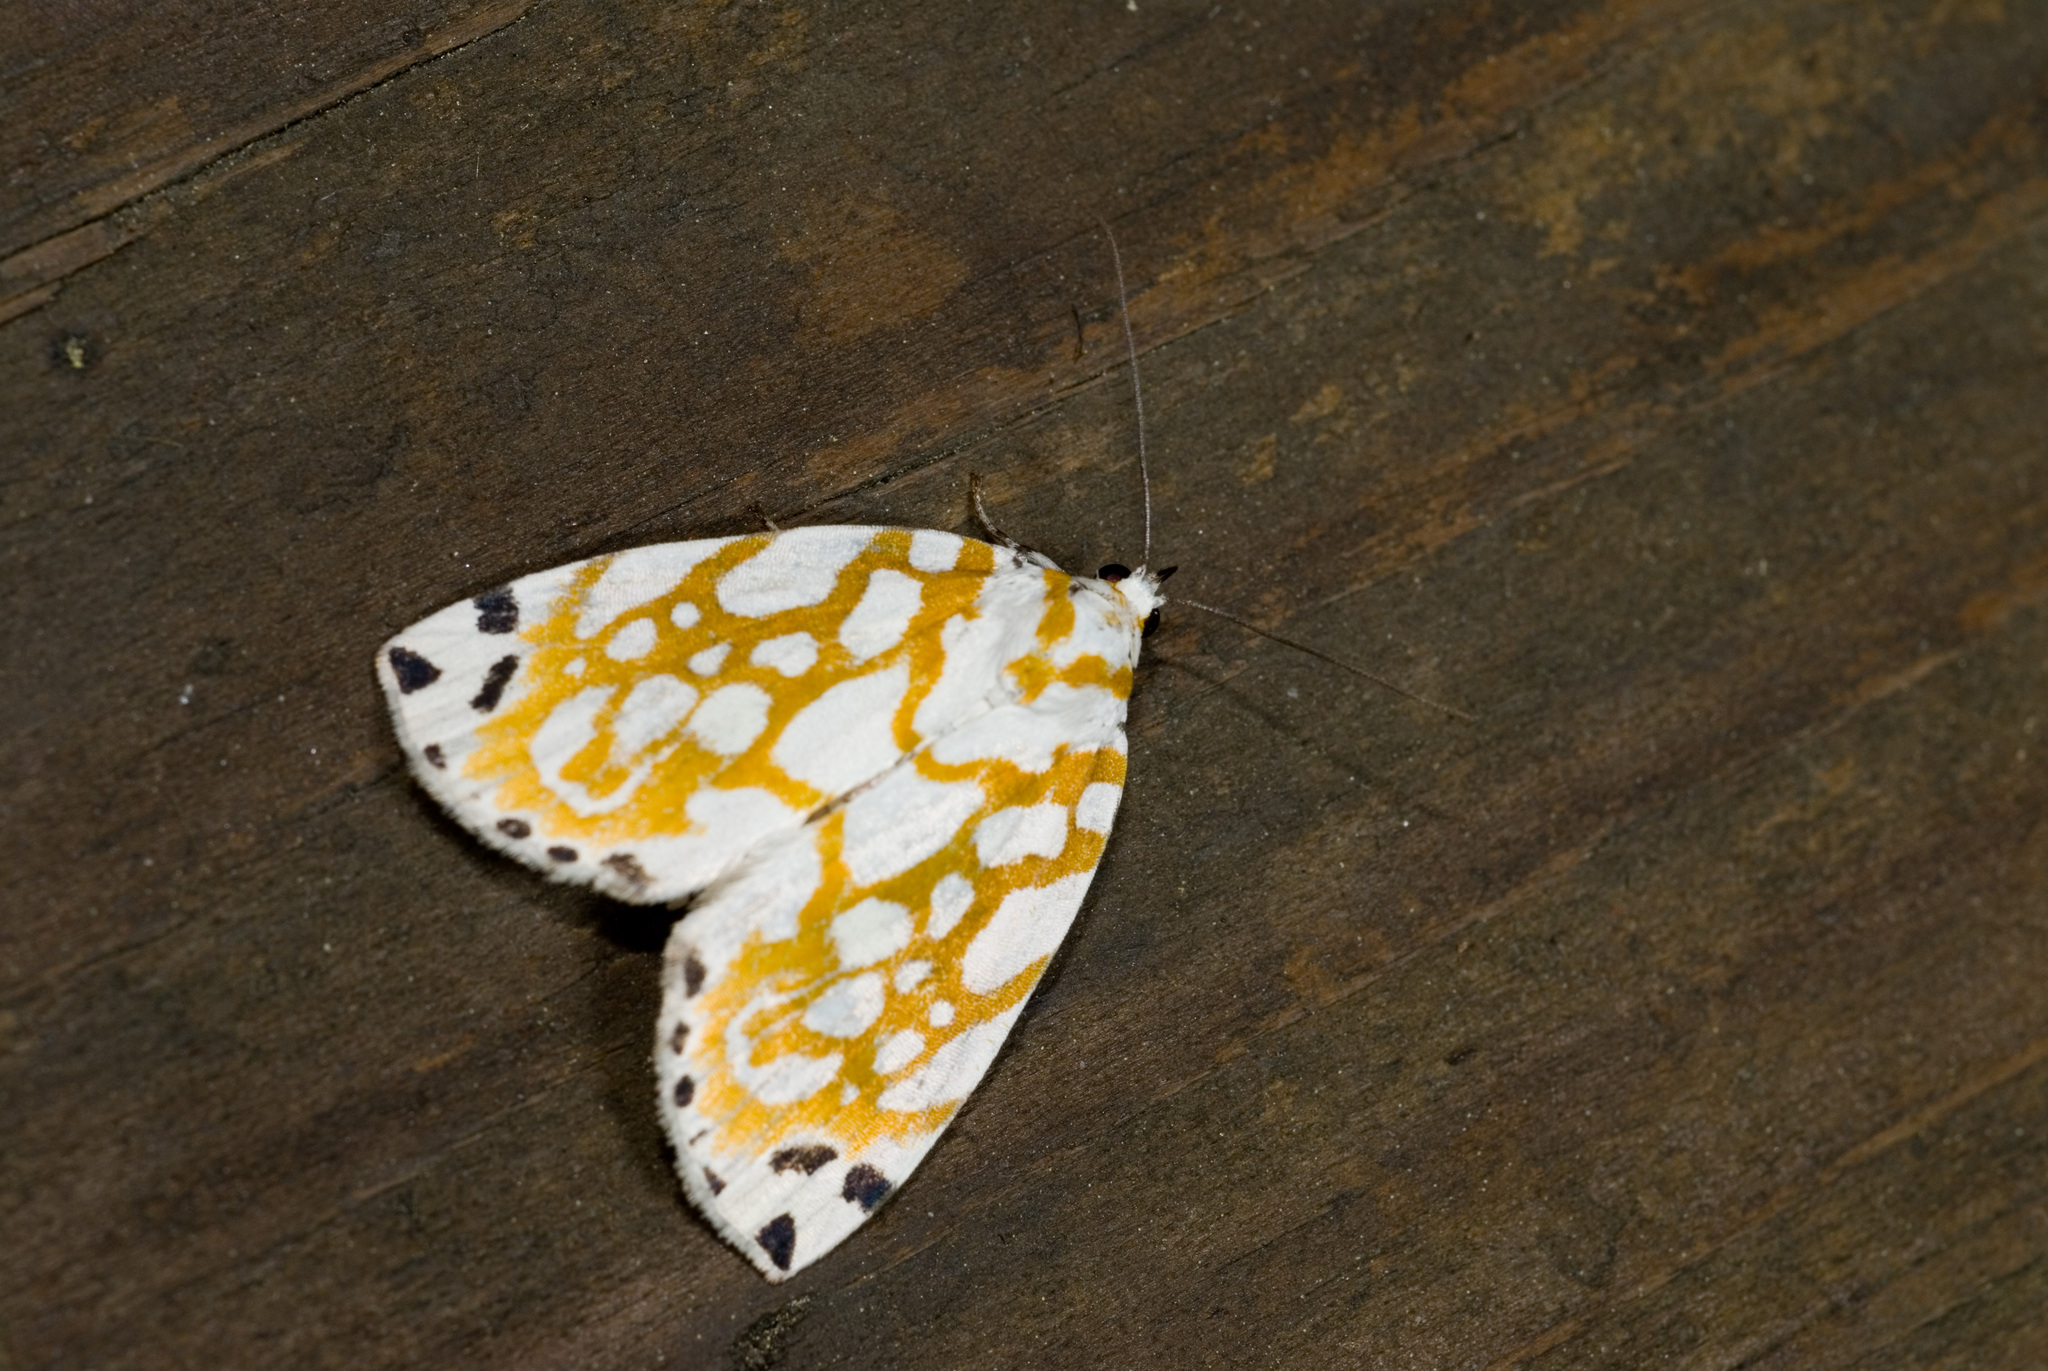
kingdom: Animalia
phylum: Arthropoda
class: Insecta
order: Lepidoptera
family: Nolidae
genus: Sinna
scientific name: Sinna extrema
